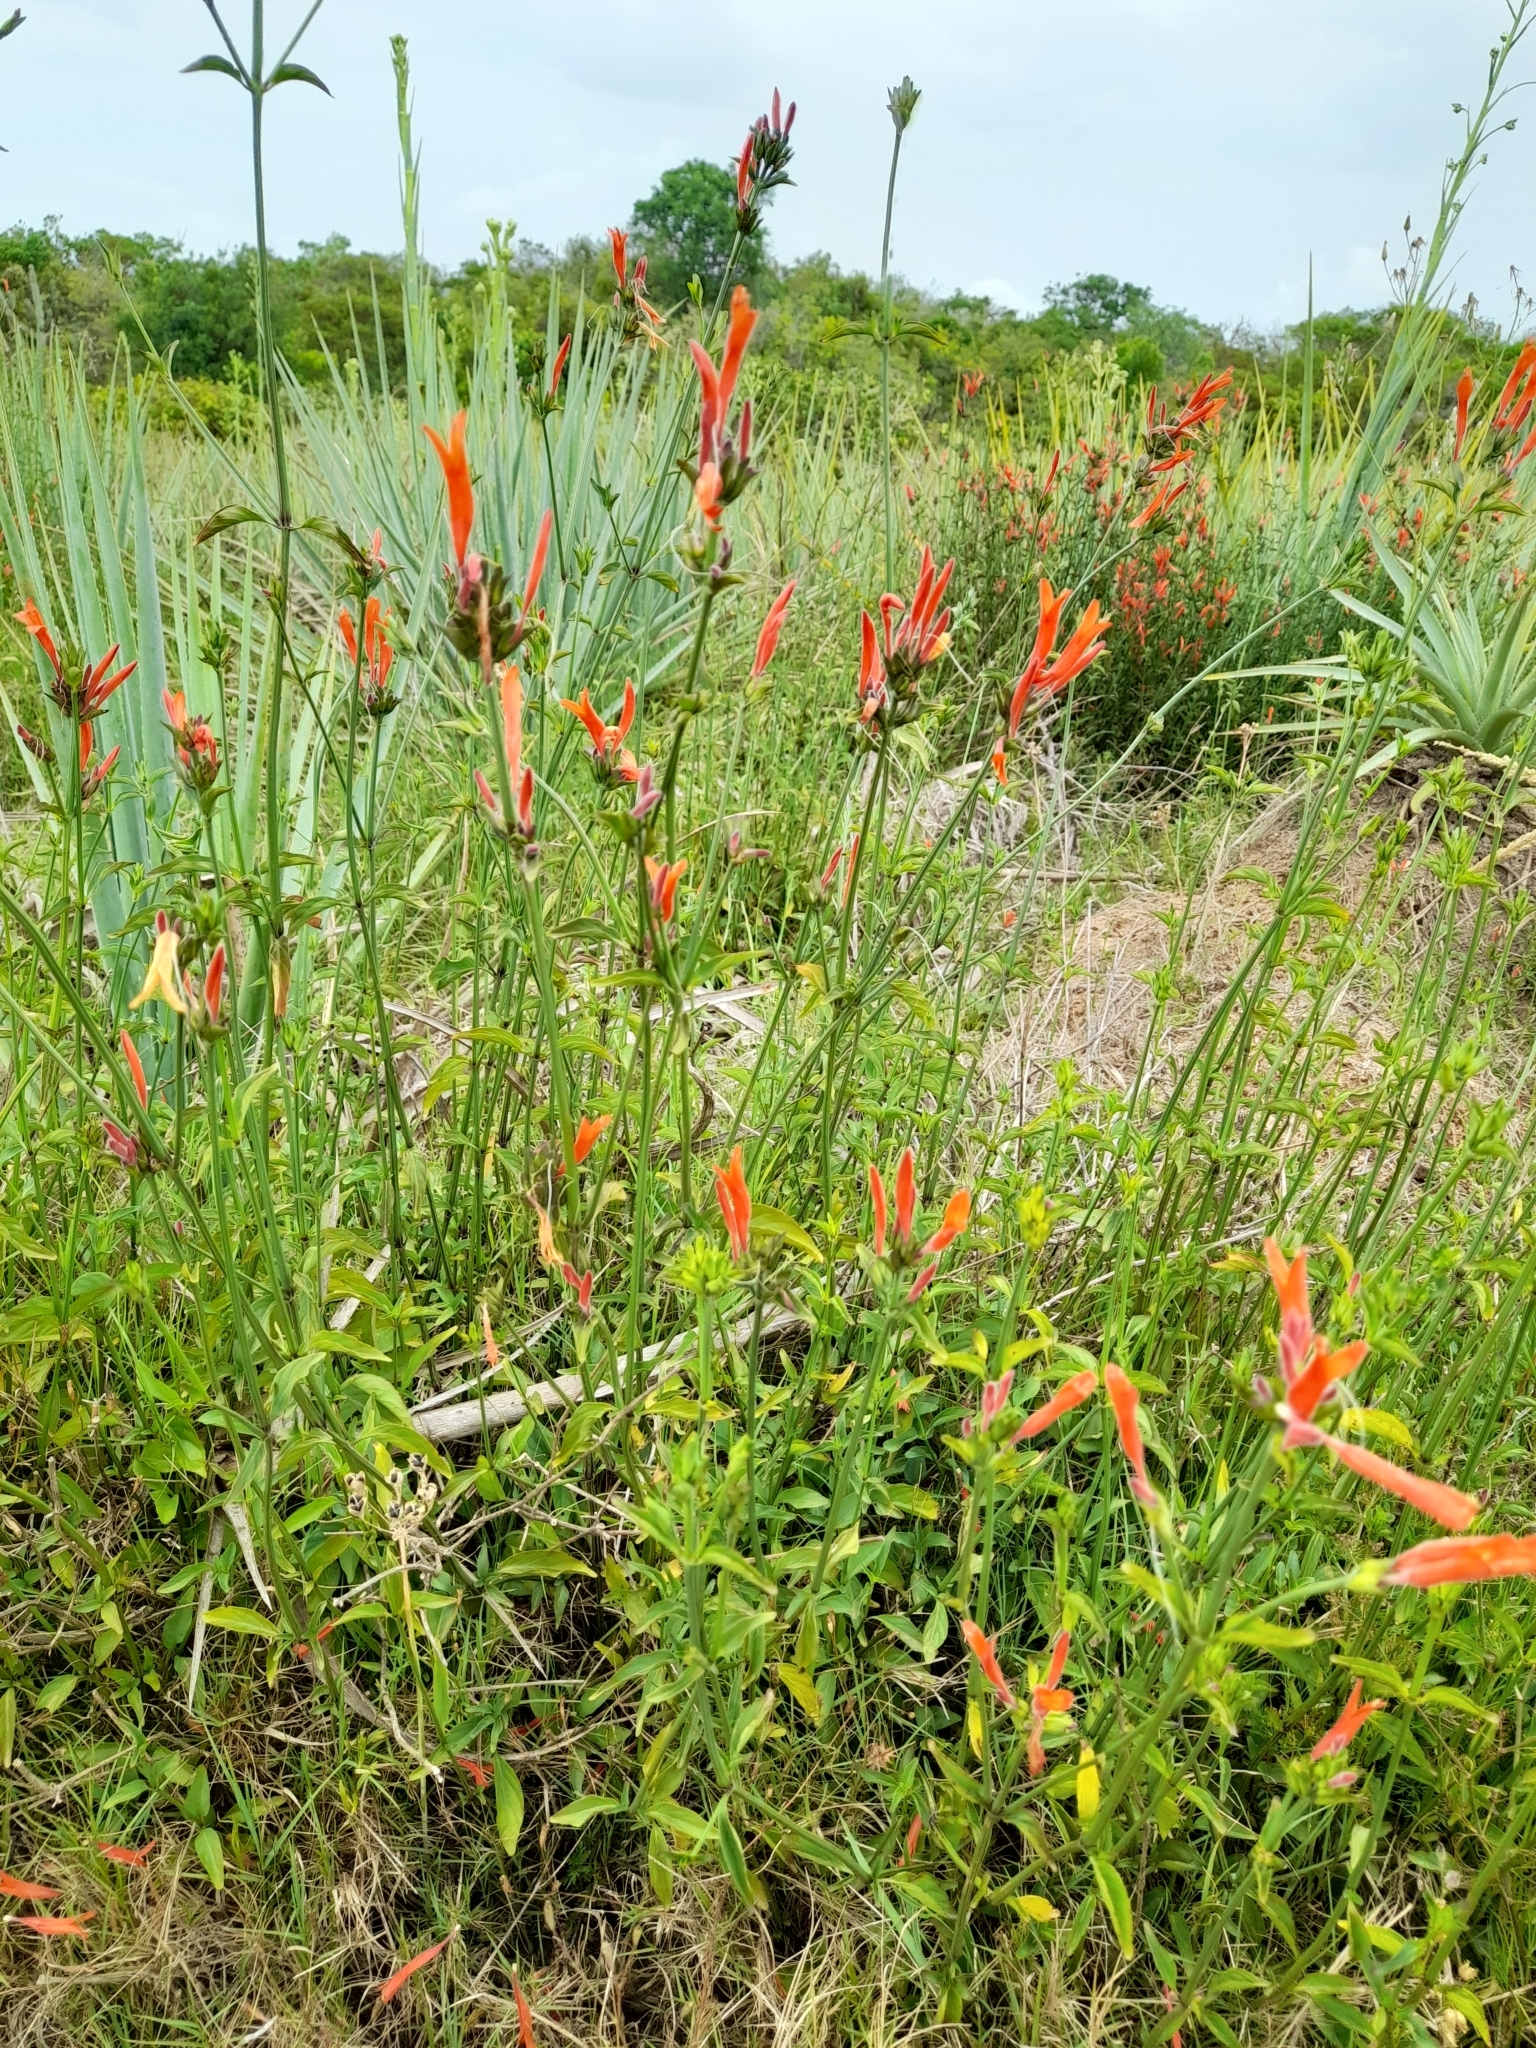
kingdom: Plantae
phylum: Tracheophyta
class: Magnoliopsida
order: Lamiales
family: Acanthaceae
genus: Dicliptera
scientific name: Dicliptera squarrosa
